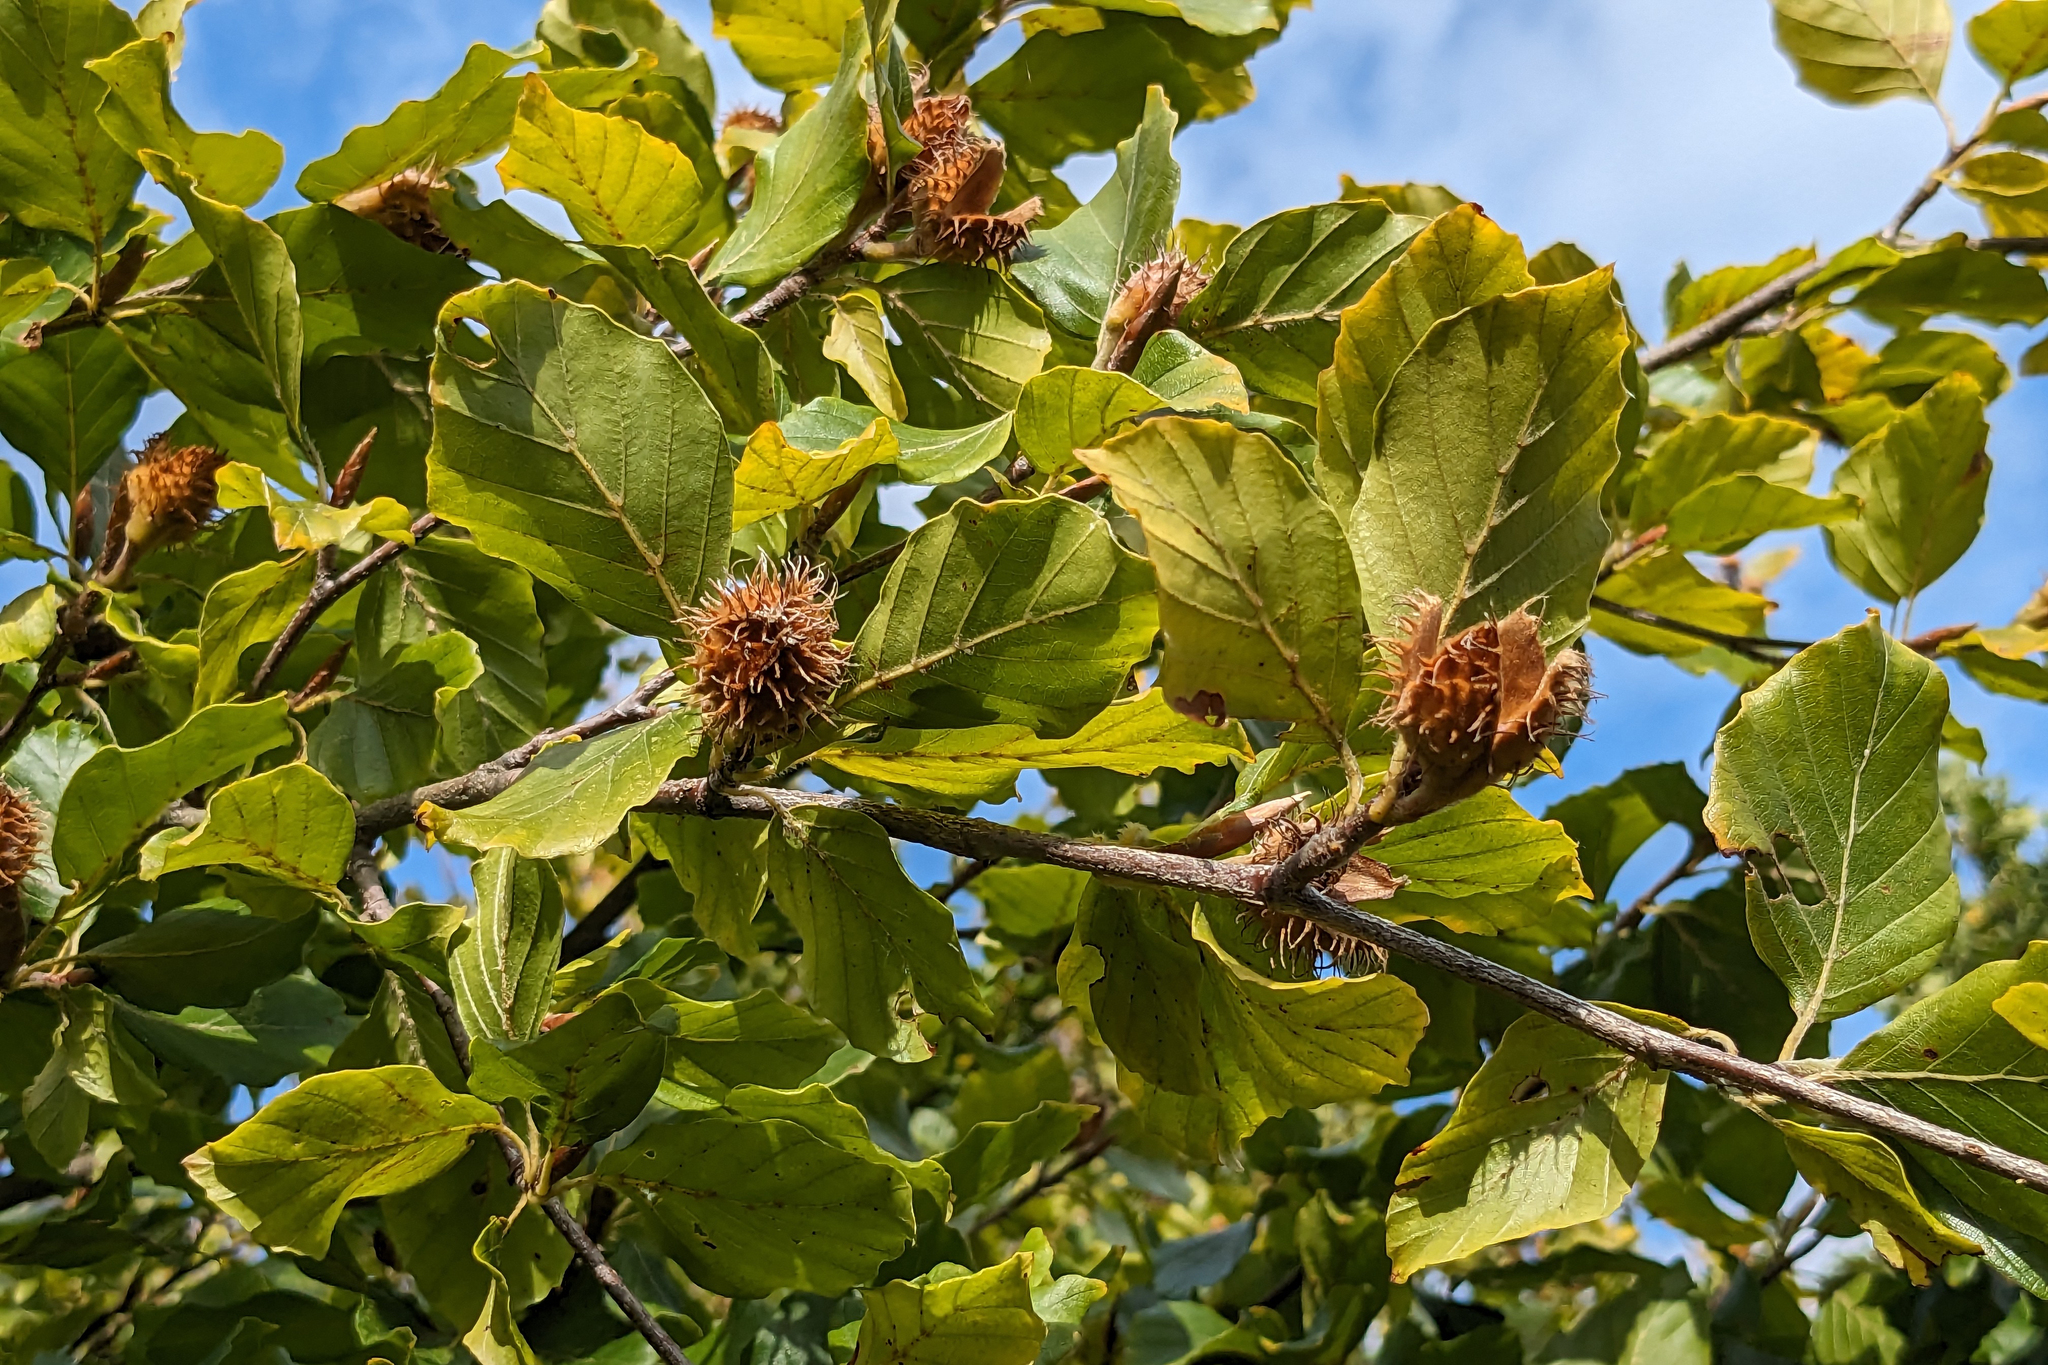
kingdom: Plantae
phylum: Tracheophyta
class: Magnoliopsida
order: Fagales
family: Fagaceae
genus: Fagus
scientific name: Fagus sylvatica
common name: Beech
